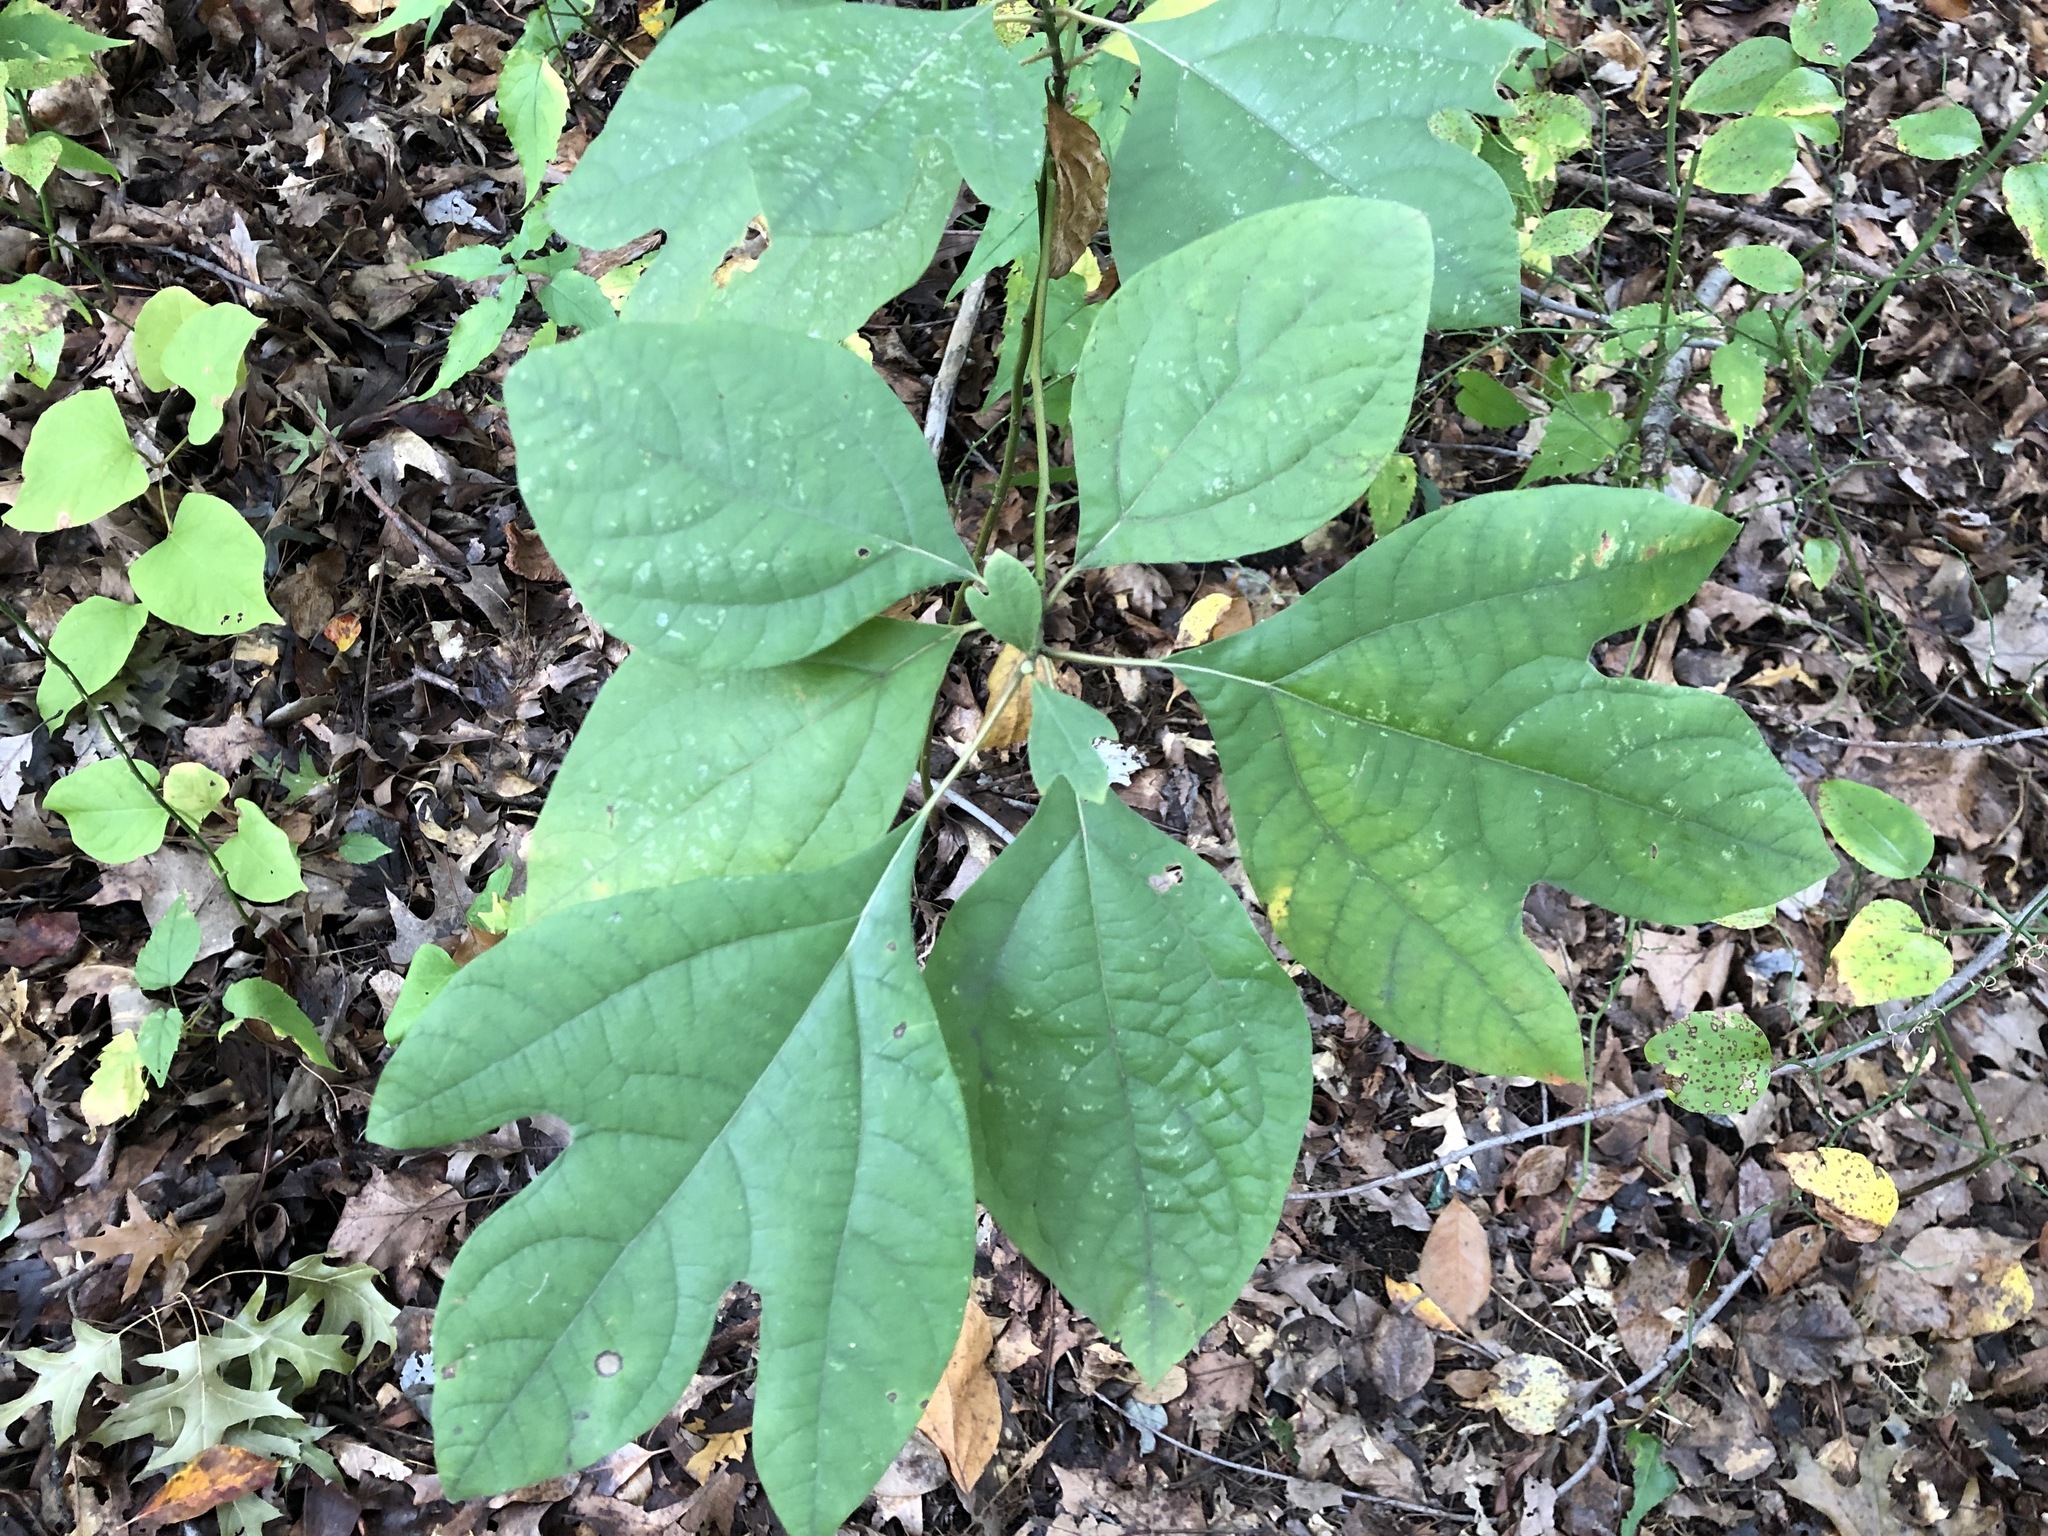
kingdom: Plantae
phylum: Tracheophyta
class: Magnoliopsida
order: Laurales
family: Lauraceae
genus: Sassafras
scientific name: Sassafras albidum
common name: Sassafras
